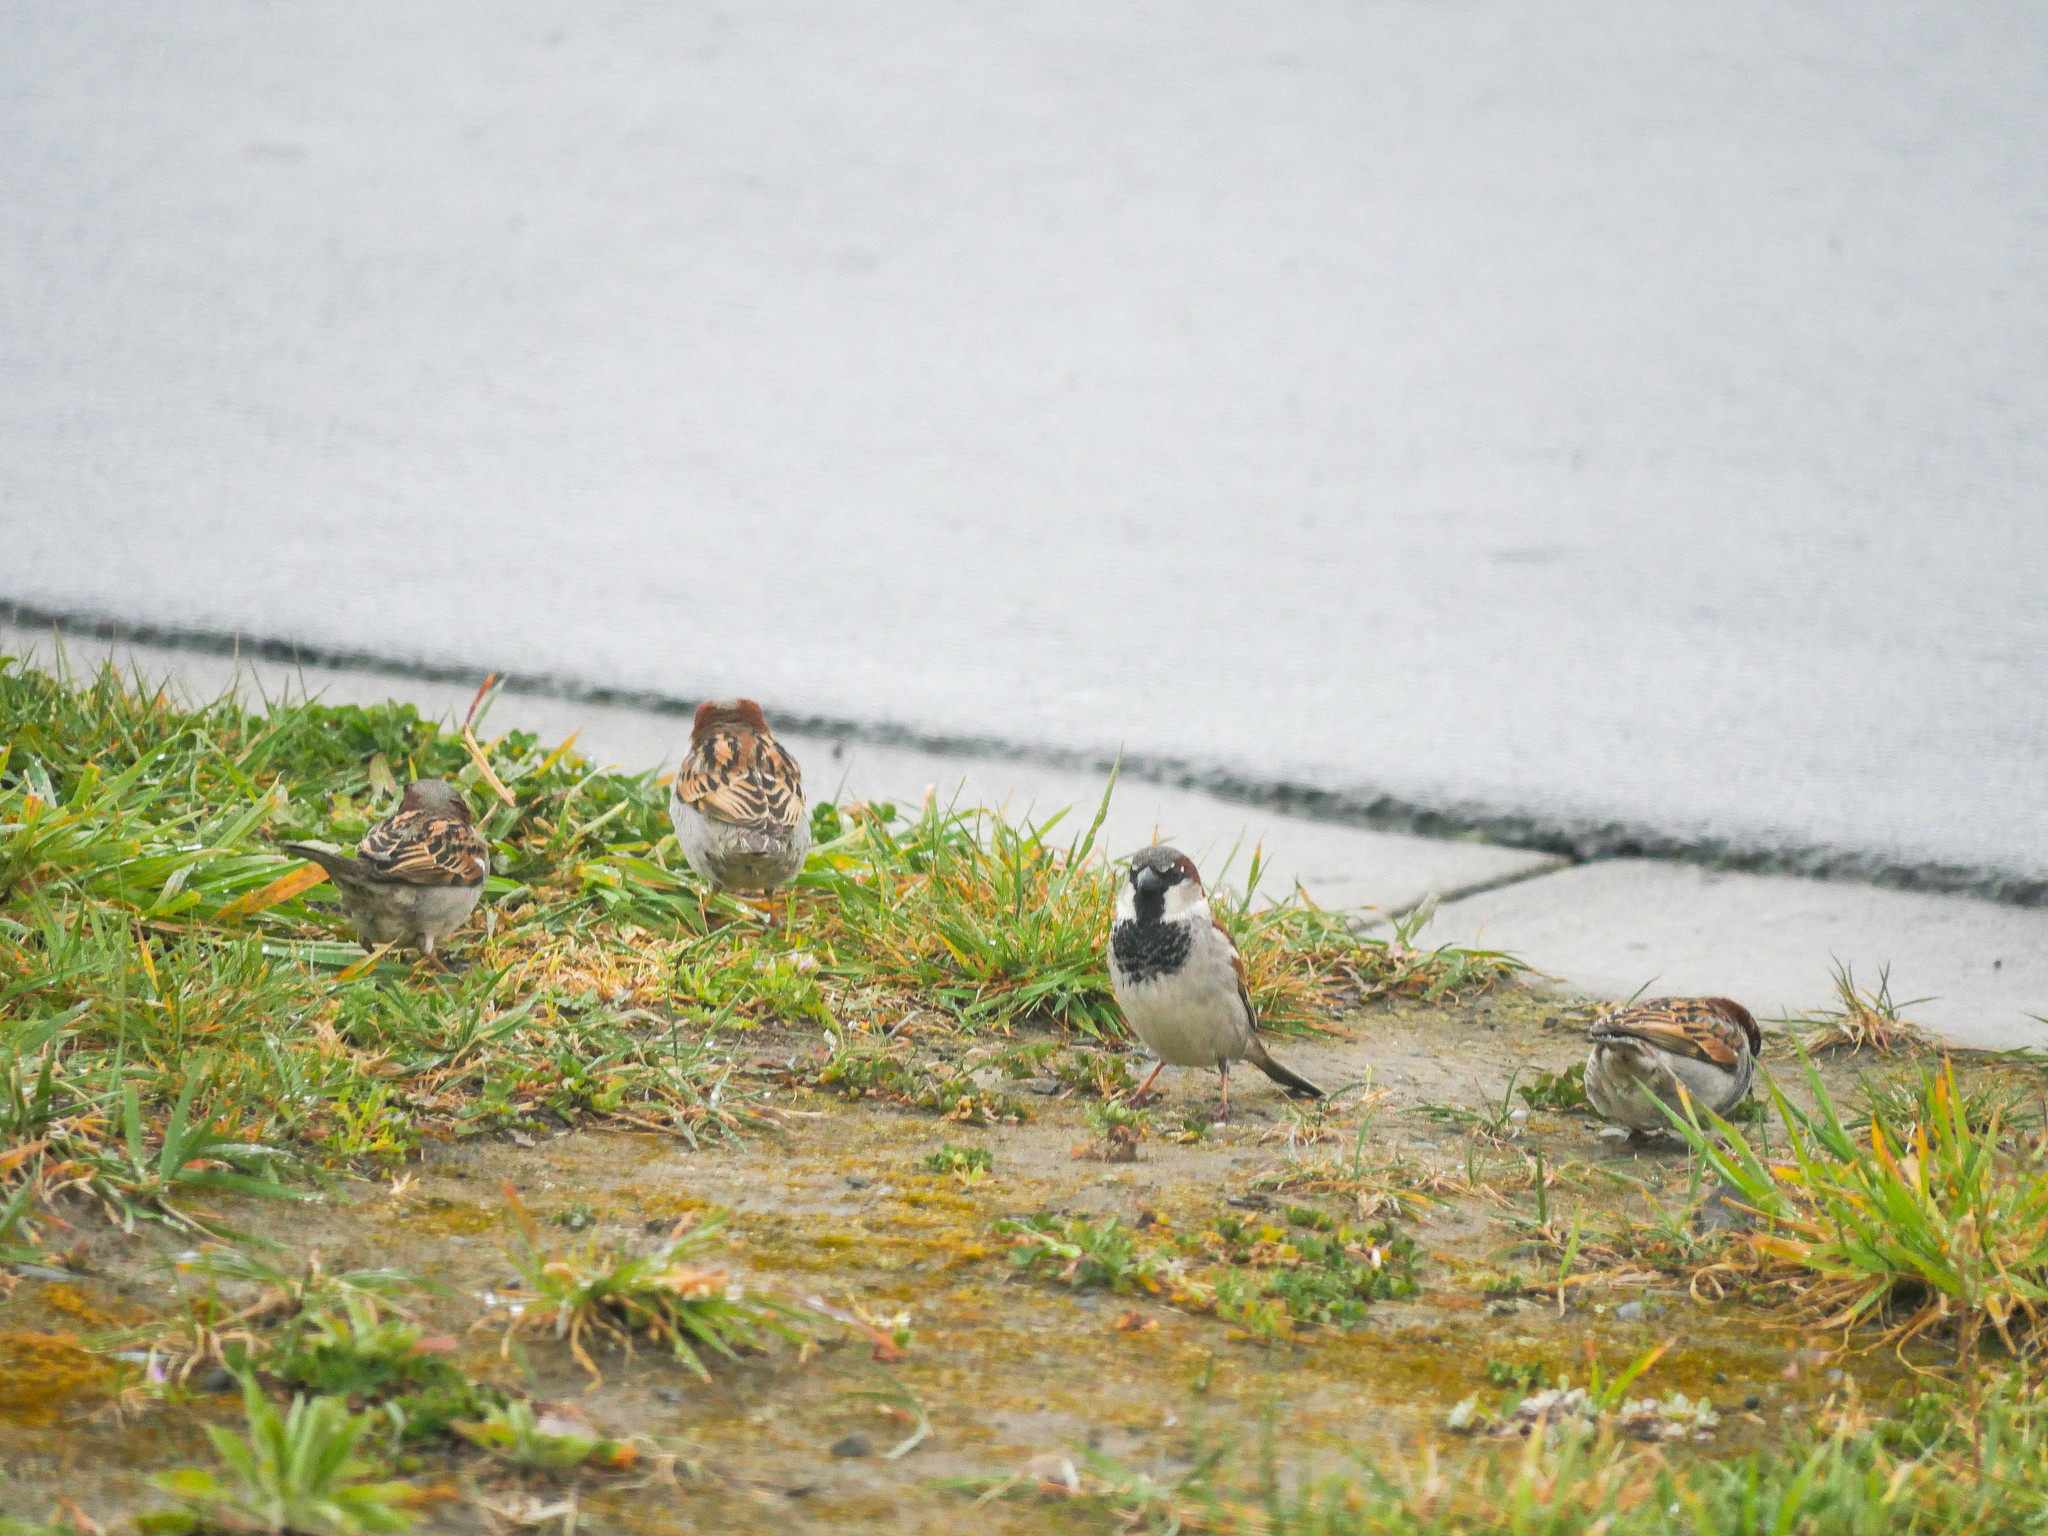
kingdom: Animalia
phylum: Chordata
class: Aves
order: Passeriformes
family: Passeridae
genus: Passer
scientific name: Passer domesticus
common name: House sparrow
